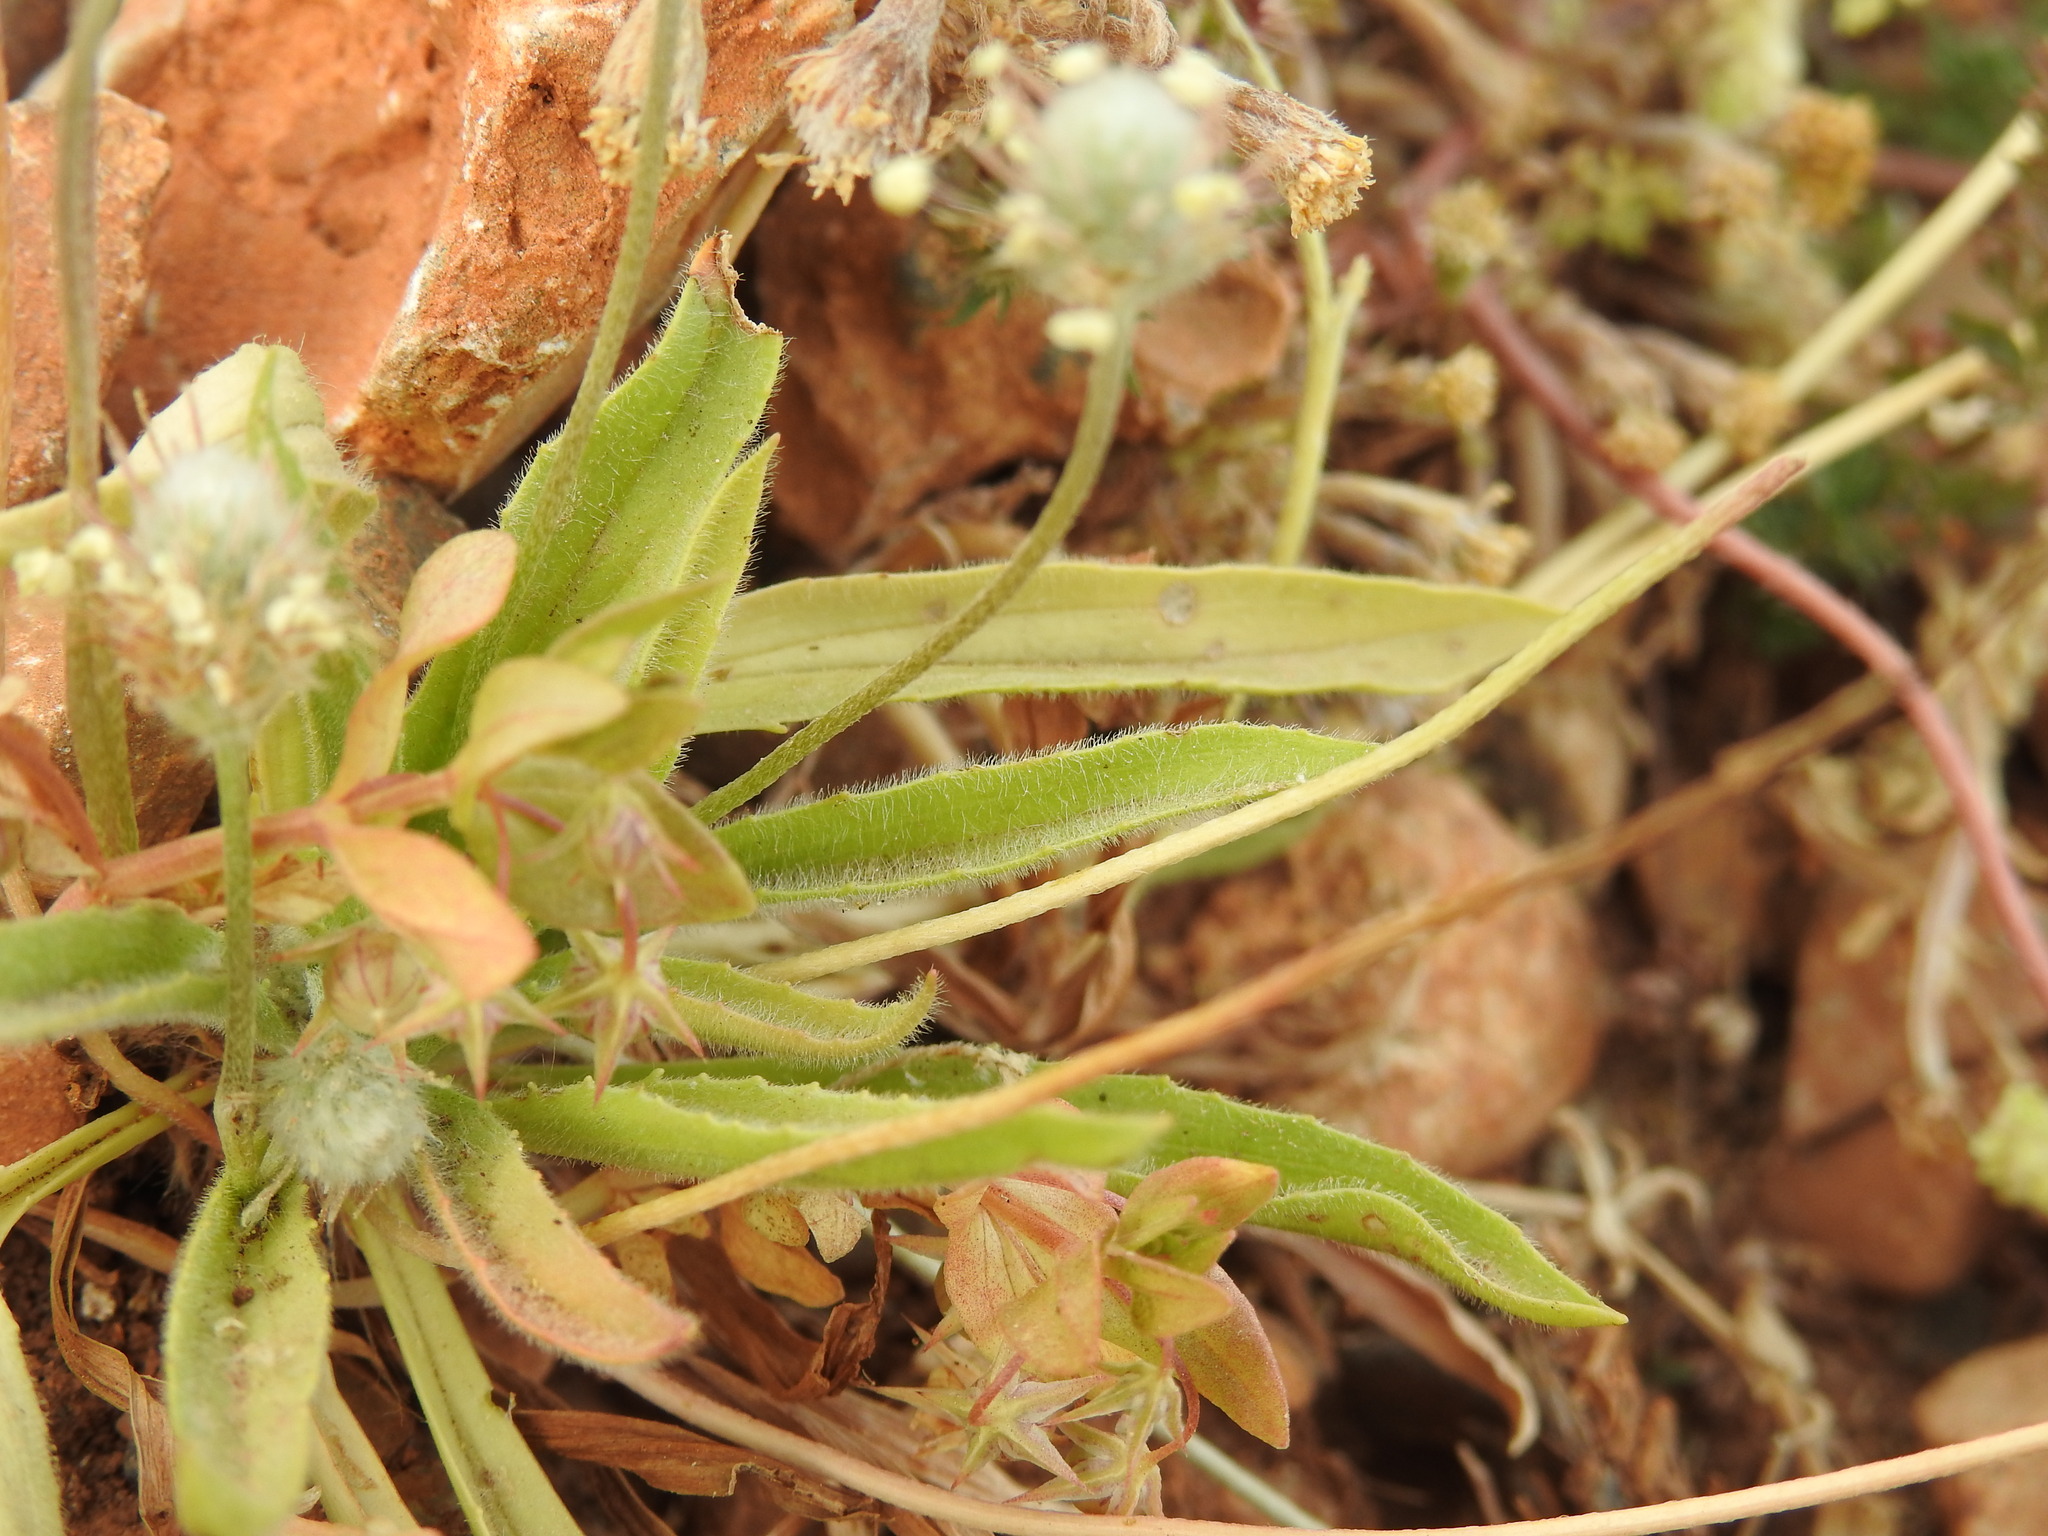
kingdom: Plantae
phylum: Tracheophyta
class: Magnoliopsida
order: Lamiales
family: Plantaginaceae
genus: Plantago
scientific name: Plantago lagopus
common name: Hare-foot plantain
